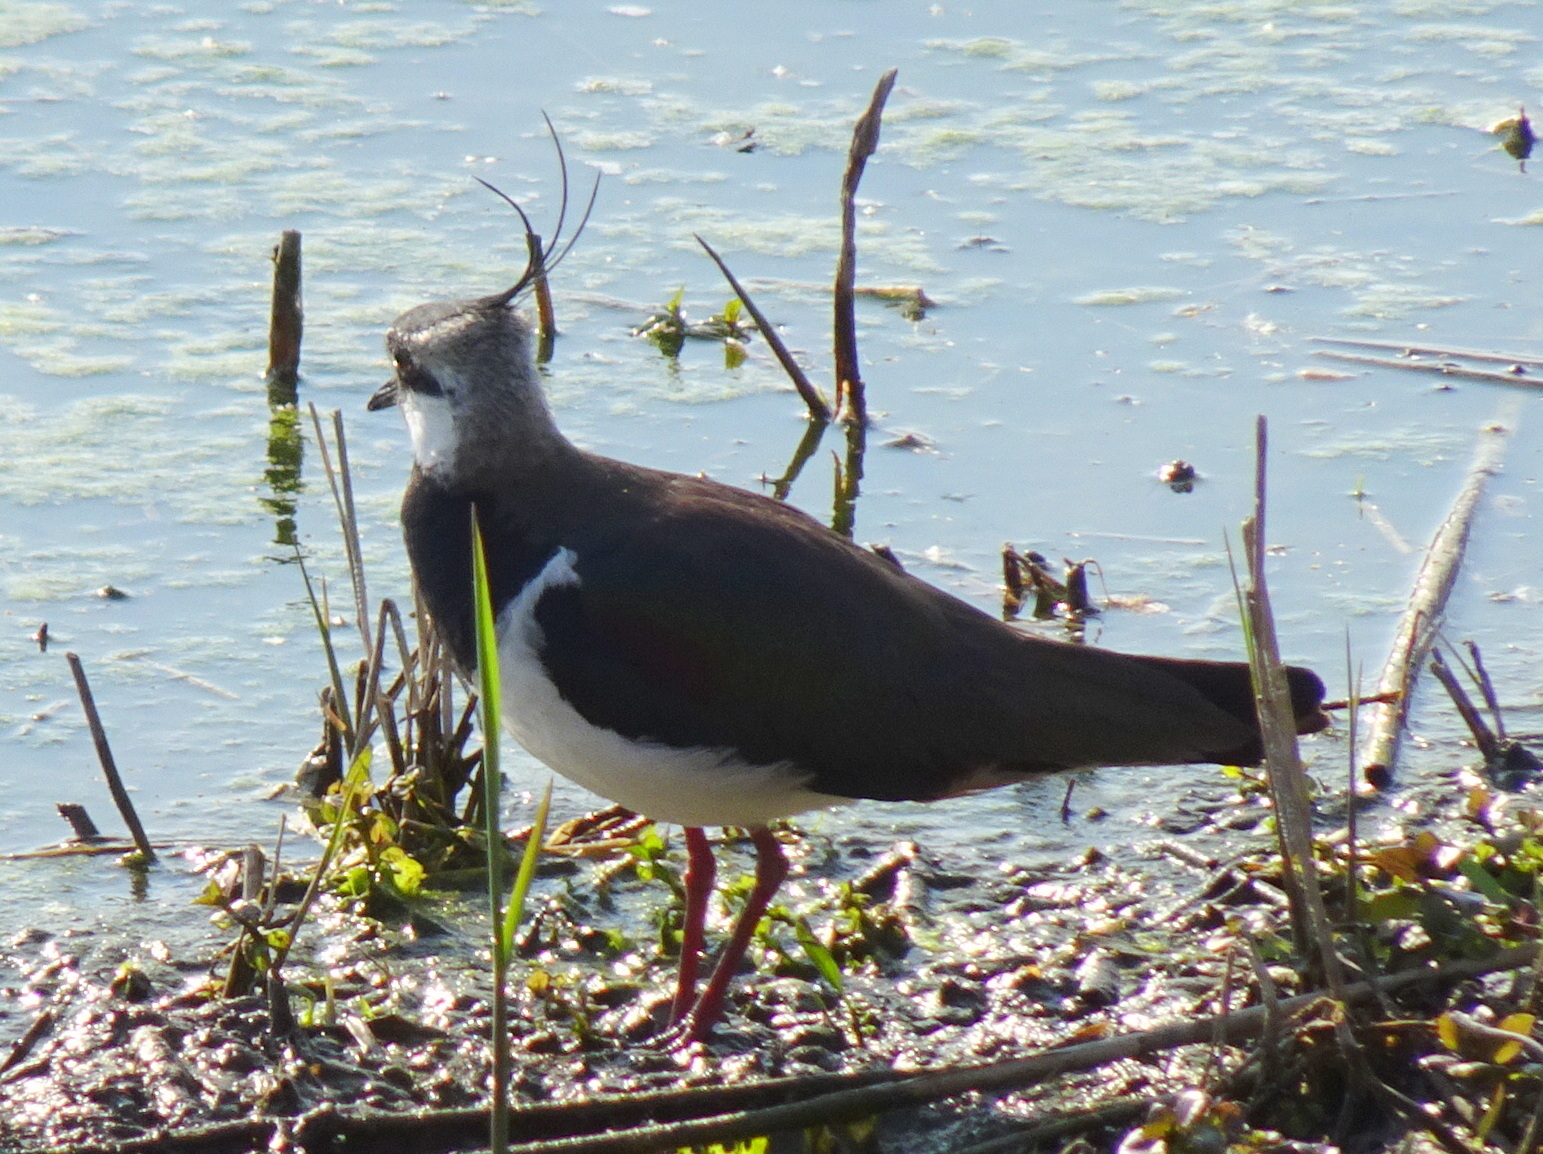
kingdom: Animalia
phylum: Chordata
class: Aves
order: Charadriiformes
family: Charadriidae
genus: Vanellus
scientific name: Vanellus vanellus
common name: Northern lapwing
